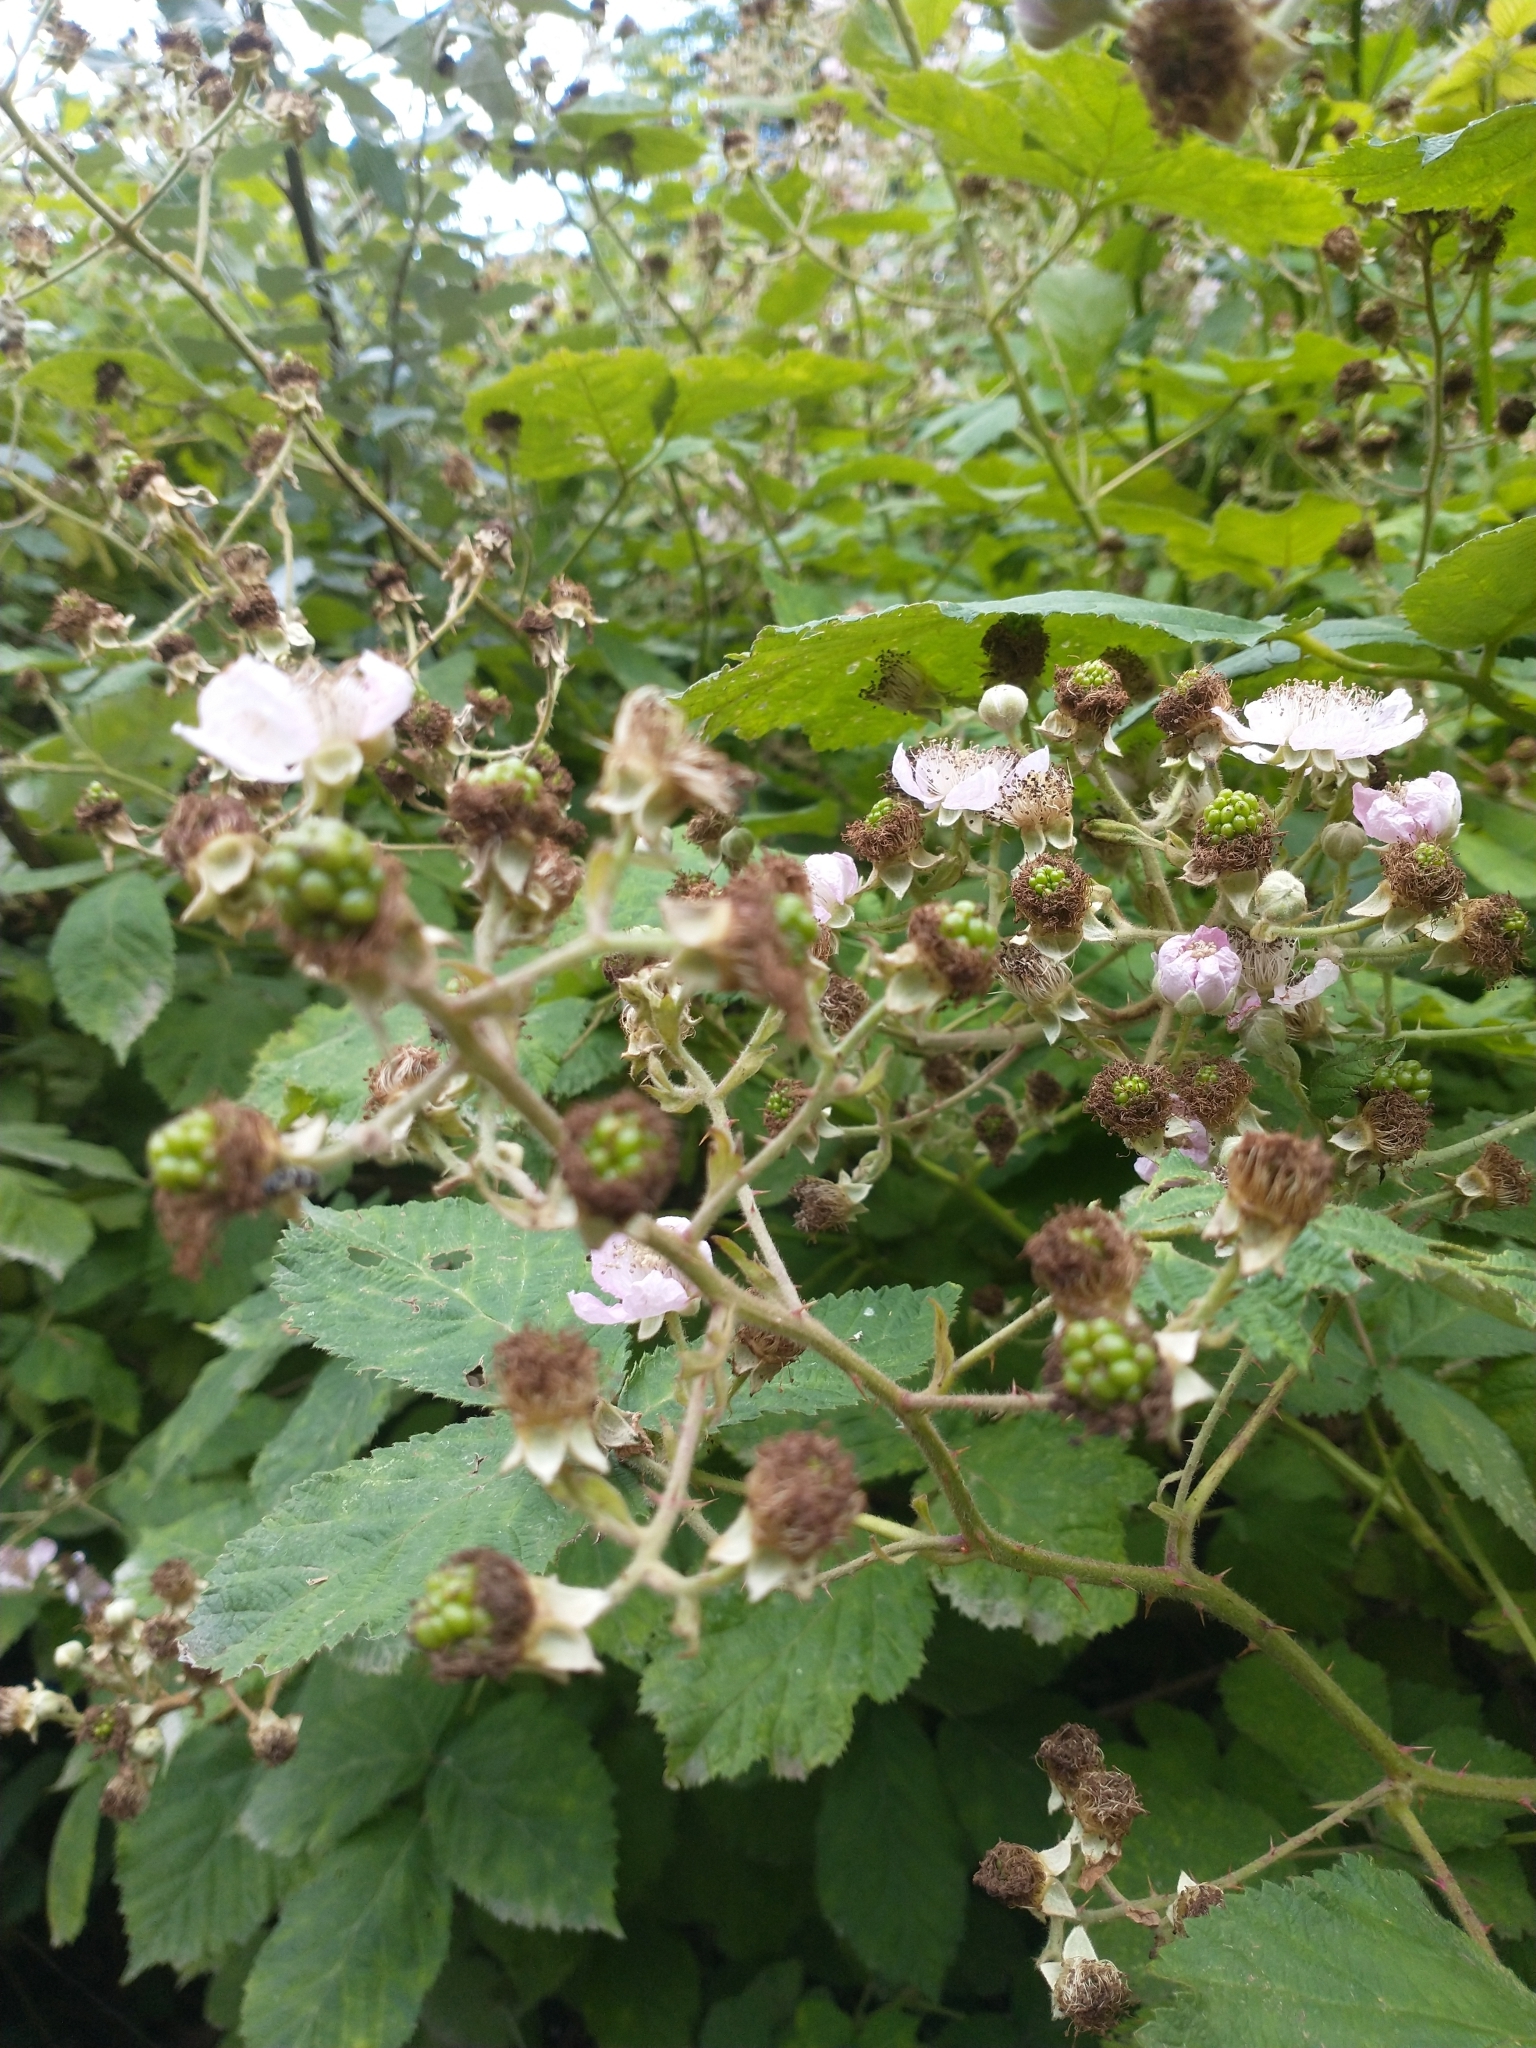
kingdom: Plantae
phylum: Tracheophyta
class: Magnoliopsida
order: Rosales
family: Rosaceae
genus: Rubus
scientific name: Rubus armeniacus
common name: Himalayan blackberry
